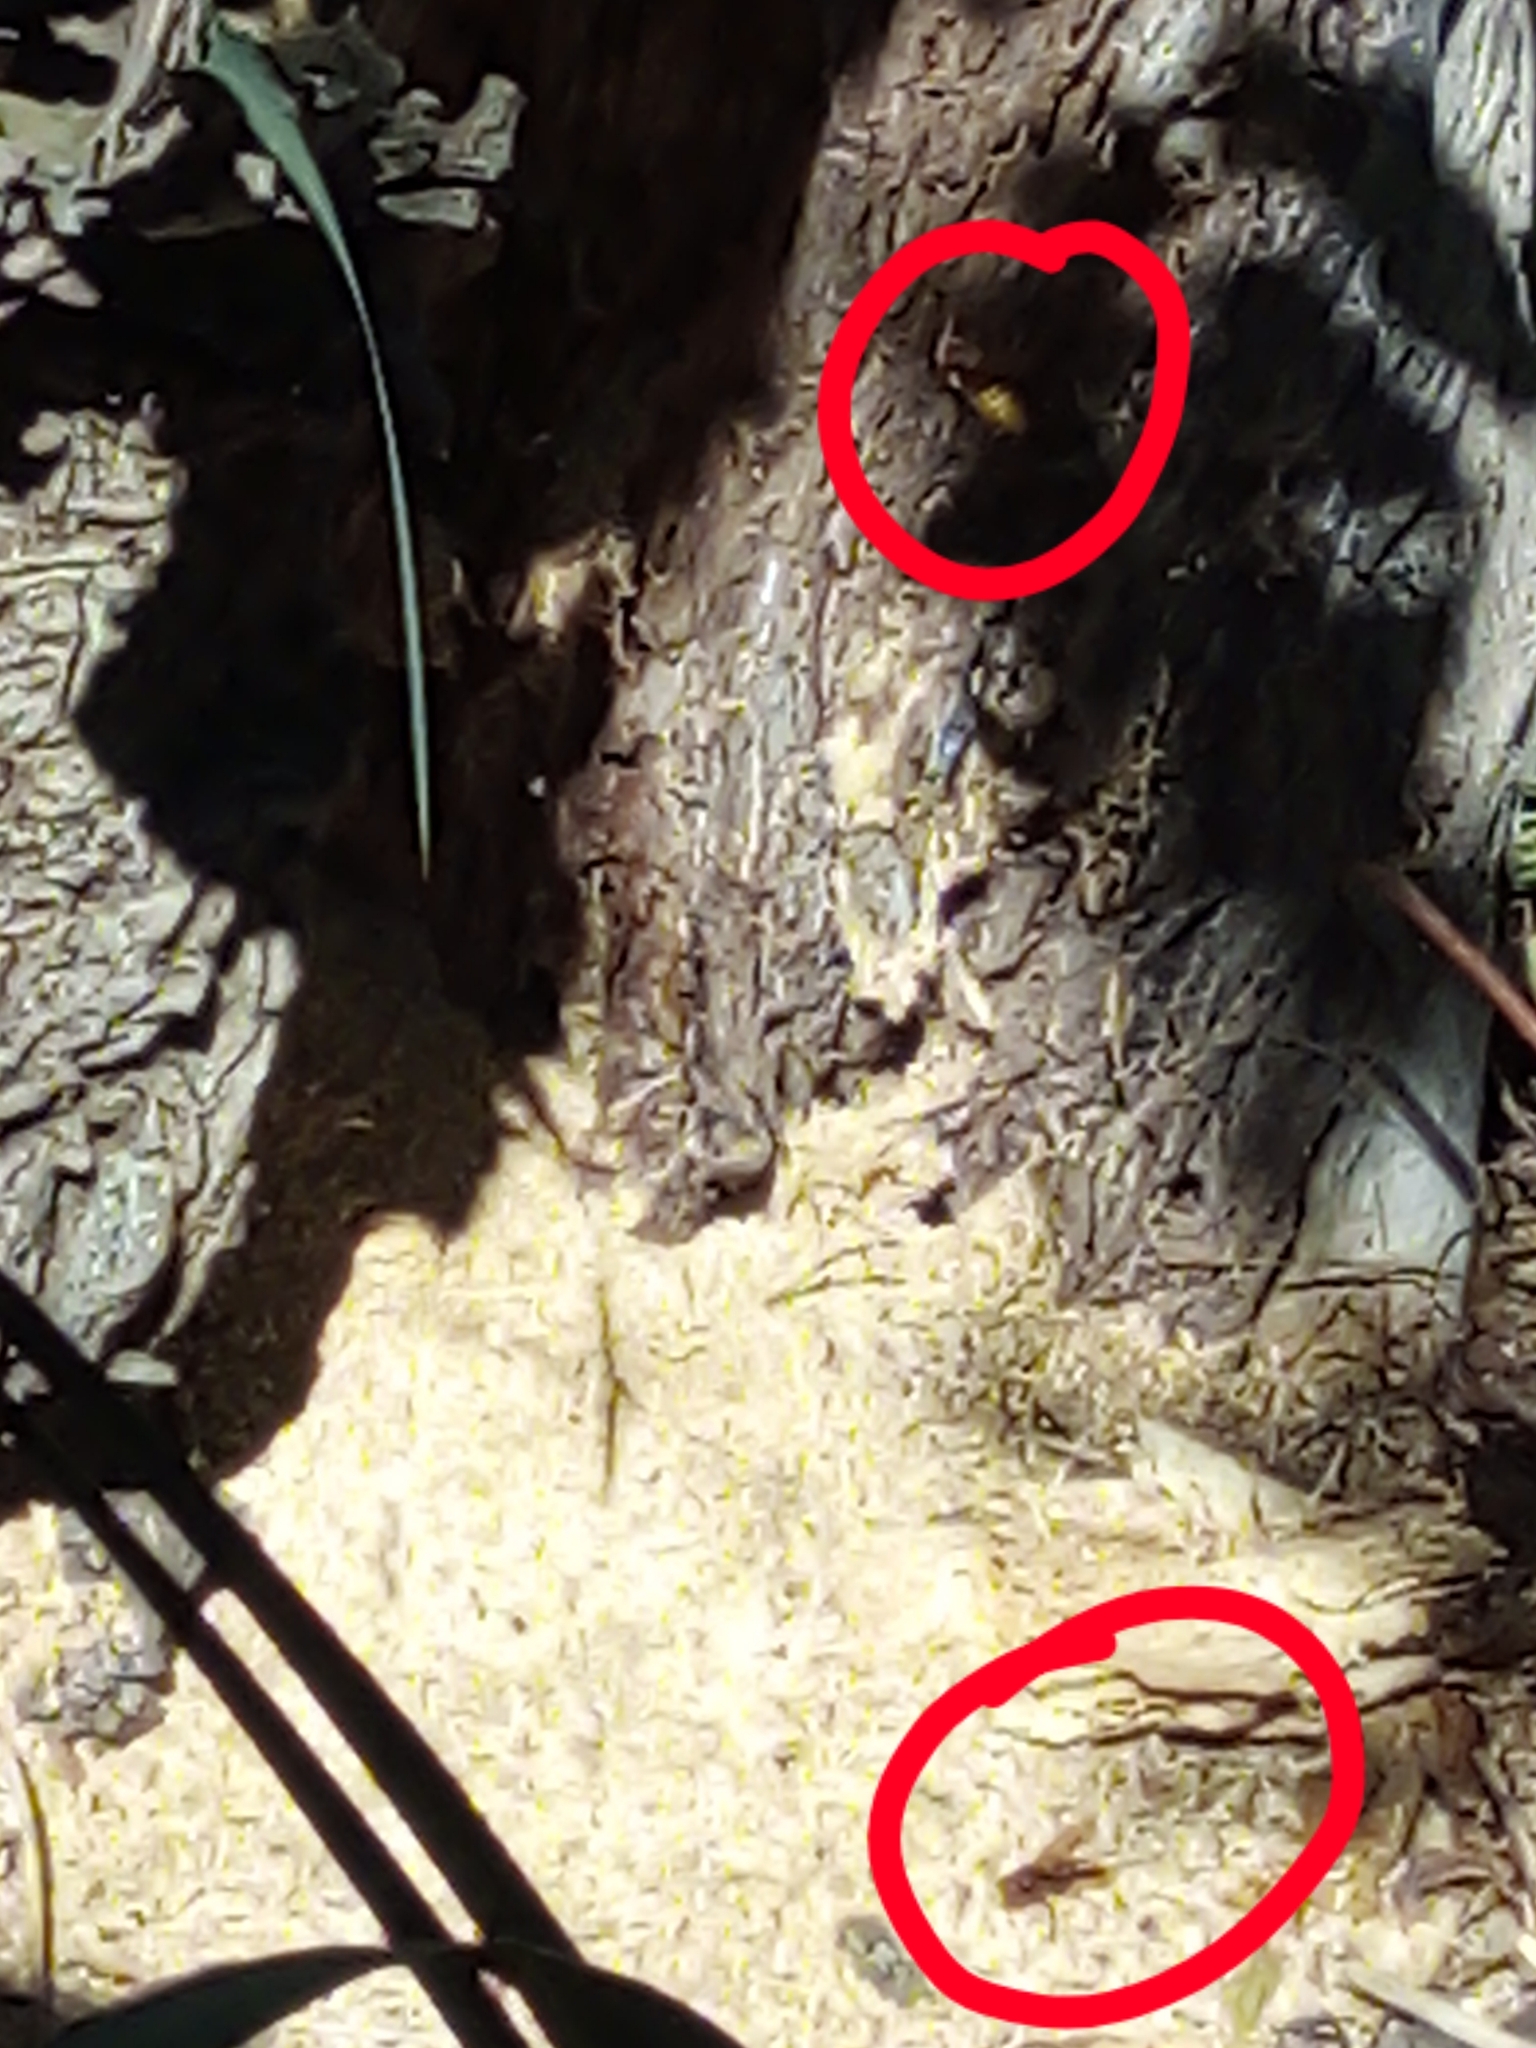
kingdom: Animalia
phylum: Arthropoda
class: Insecta
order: Hymenoptera
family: Vespidae
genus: Vespa
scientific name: Vespa crabro
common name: Hornet
